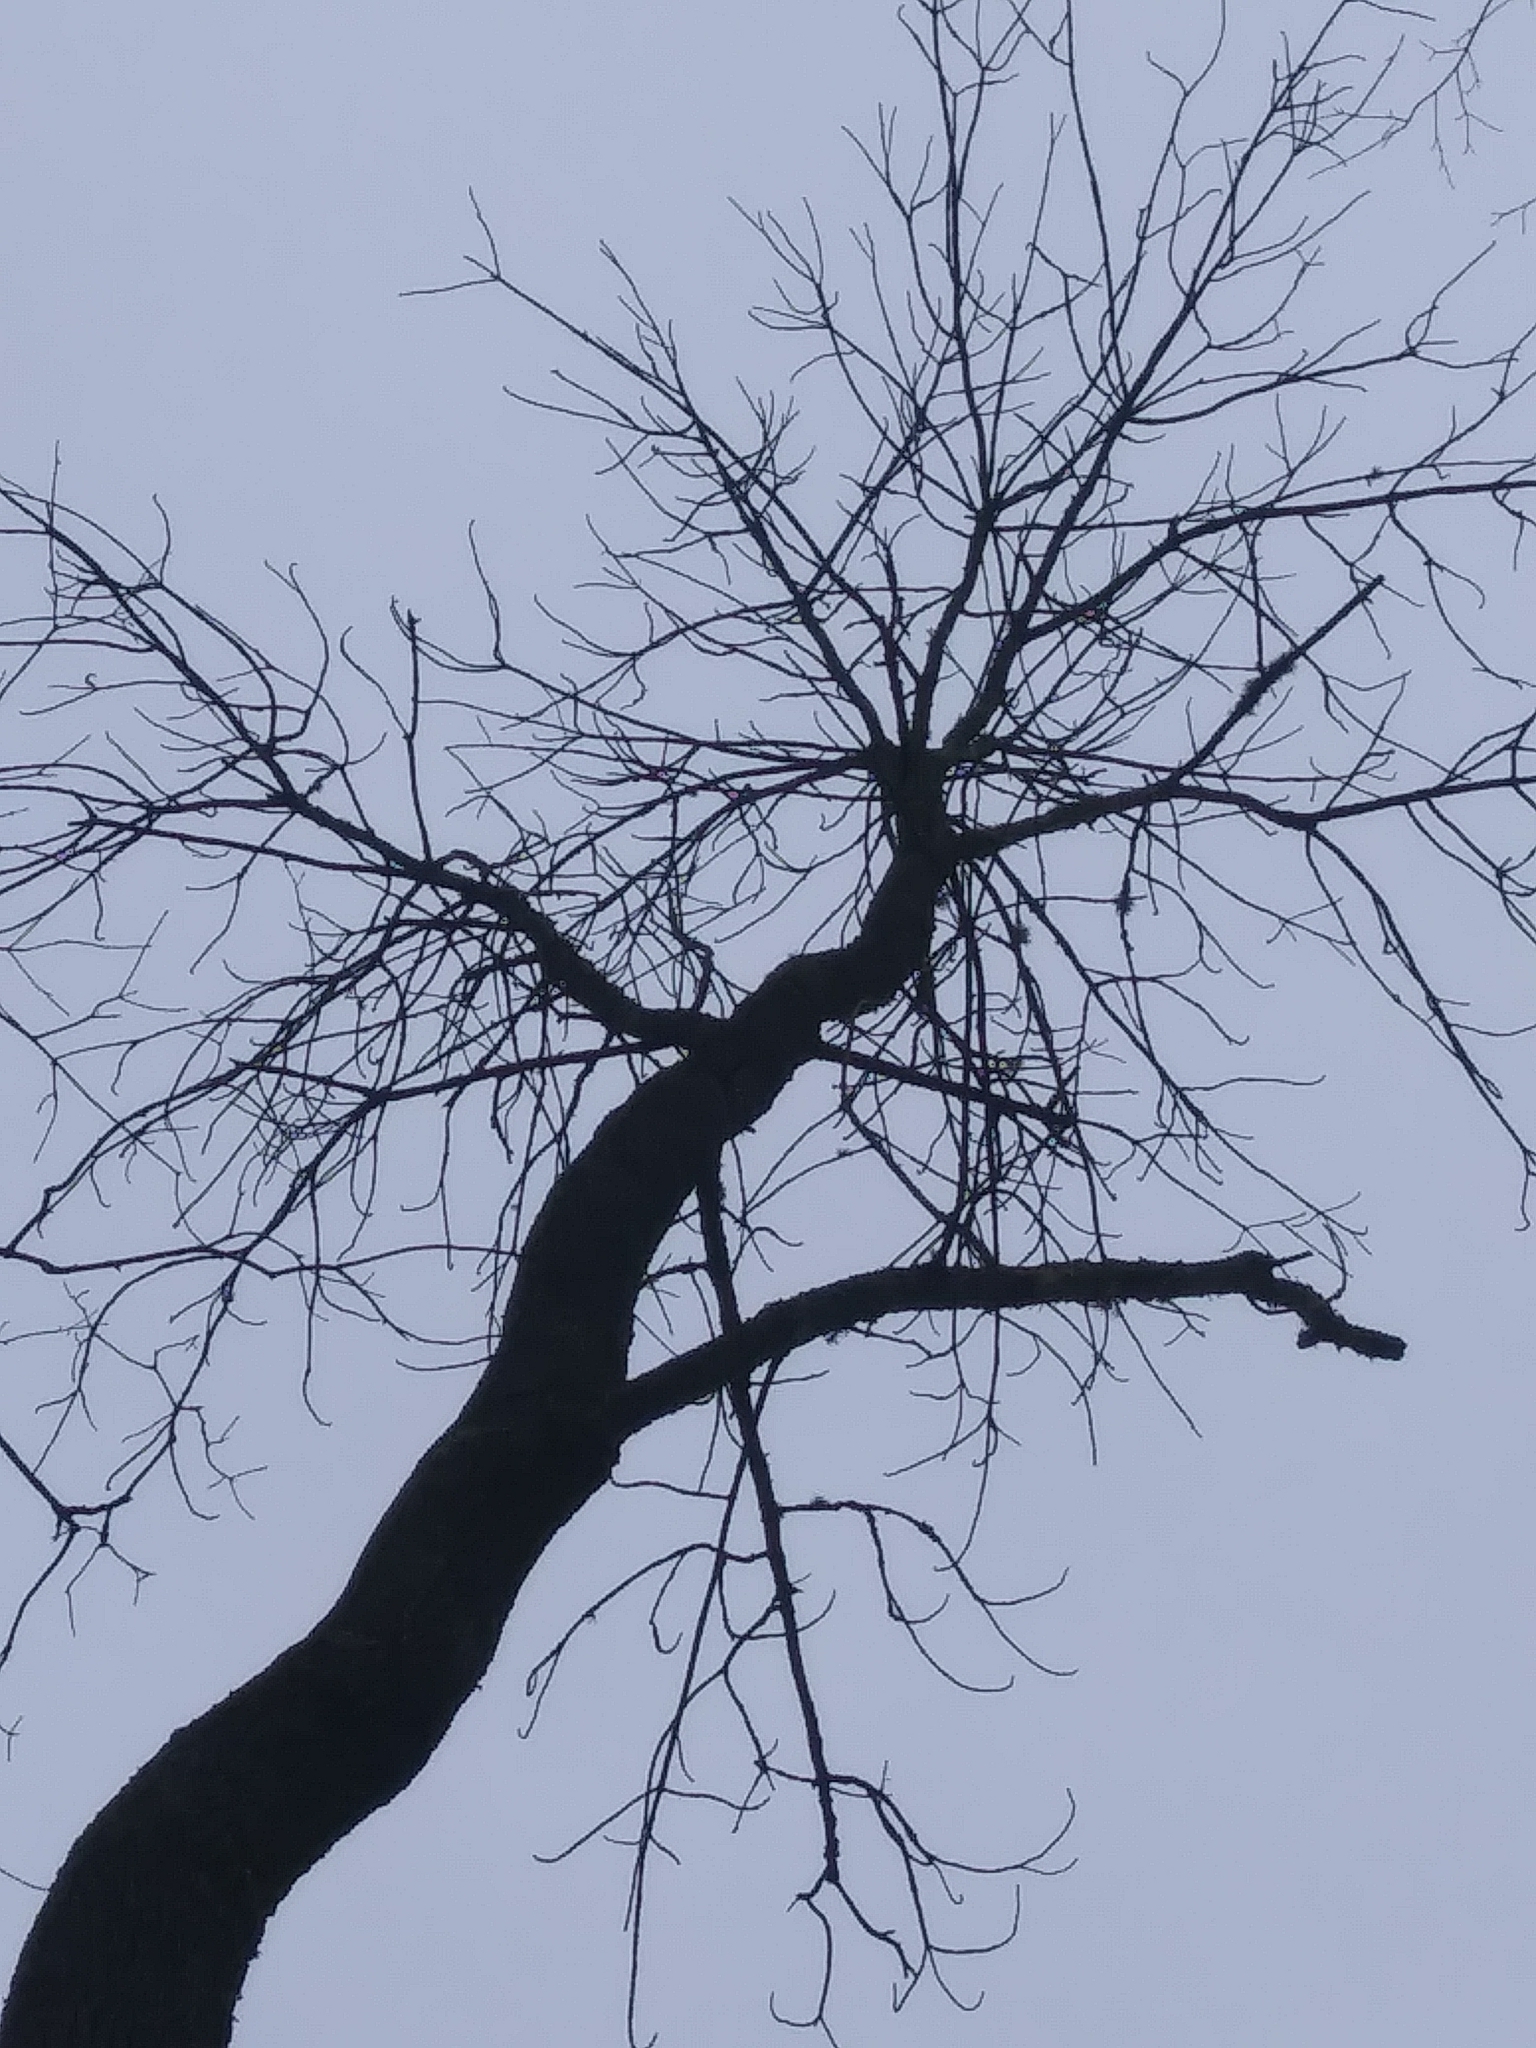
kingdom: Plantae
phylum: Tracheophyta
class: Magnoliopsida
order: Lamiales
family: Oleaceae
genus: Fraxinus
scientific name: Fraxinus americana
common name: White ash
